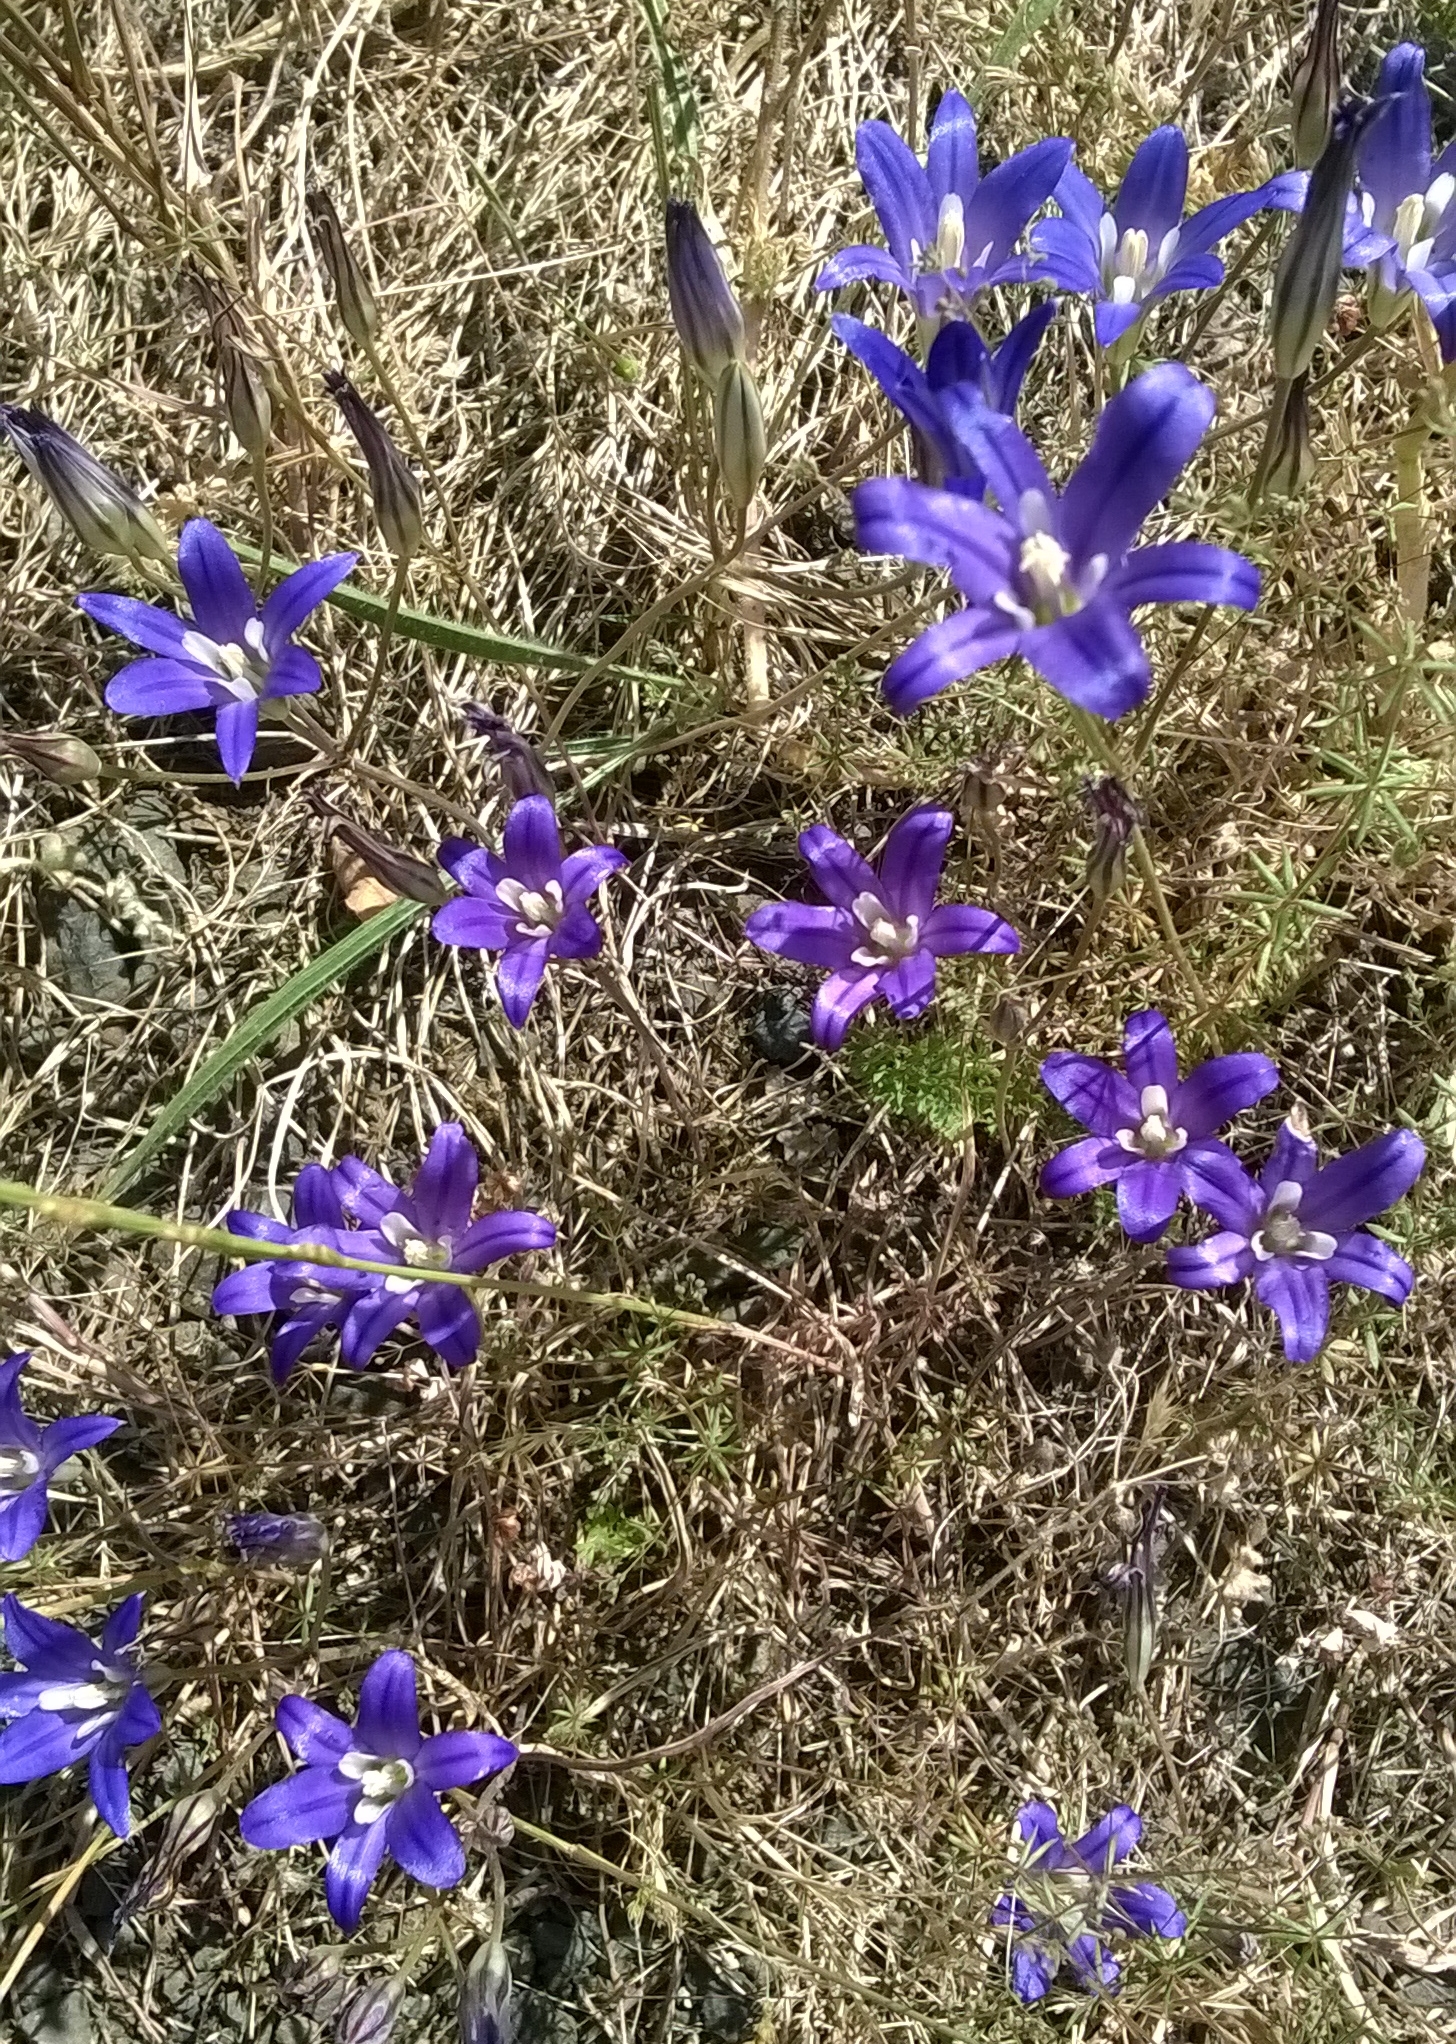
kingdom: Plantae
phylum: Tracheophyta
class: Liliopsida
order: Asparagales
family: Asparagaceae
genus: Brodiaea
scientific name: Brodiaea elegans
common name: Elegant cluster-lily
